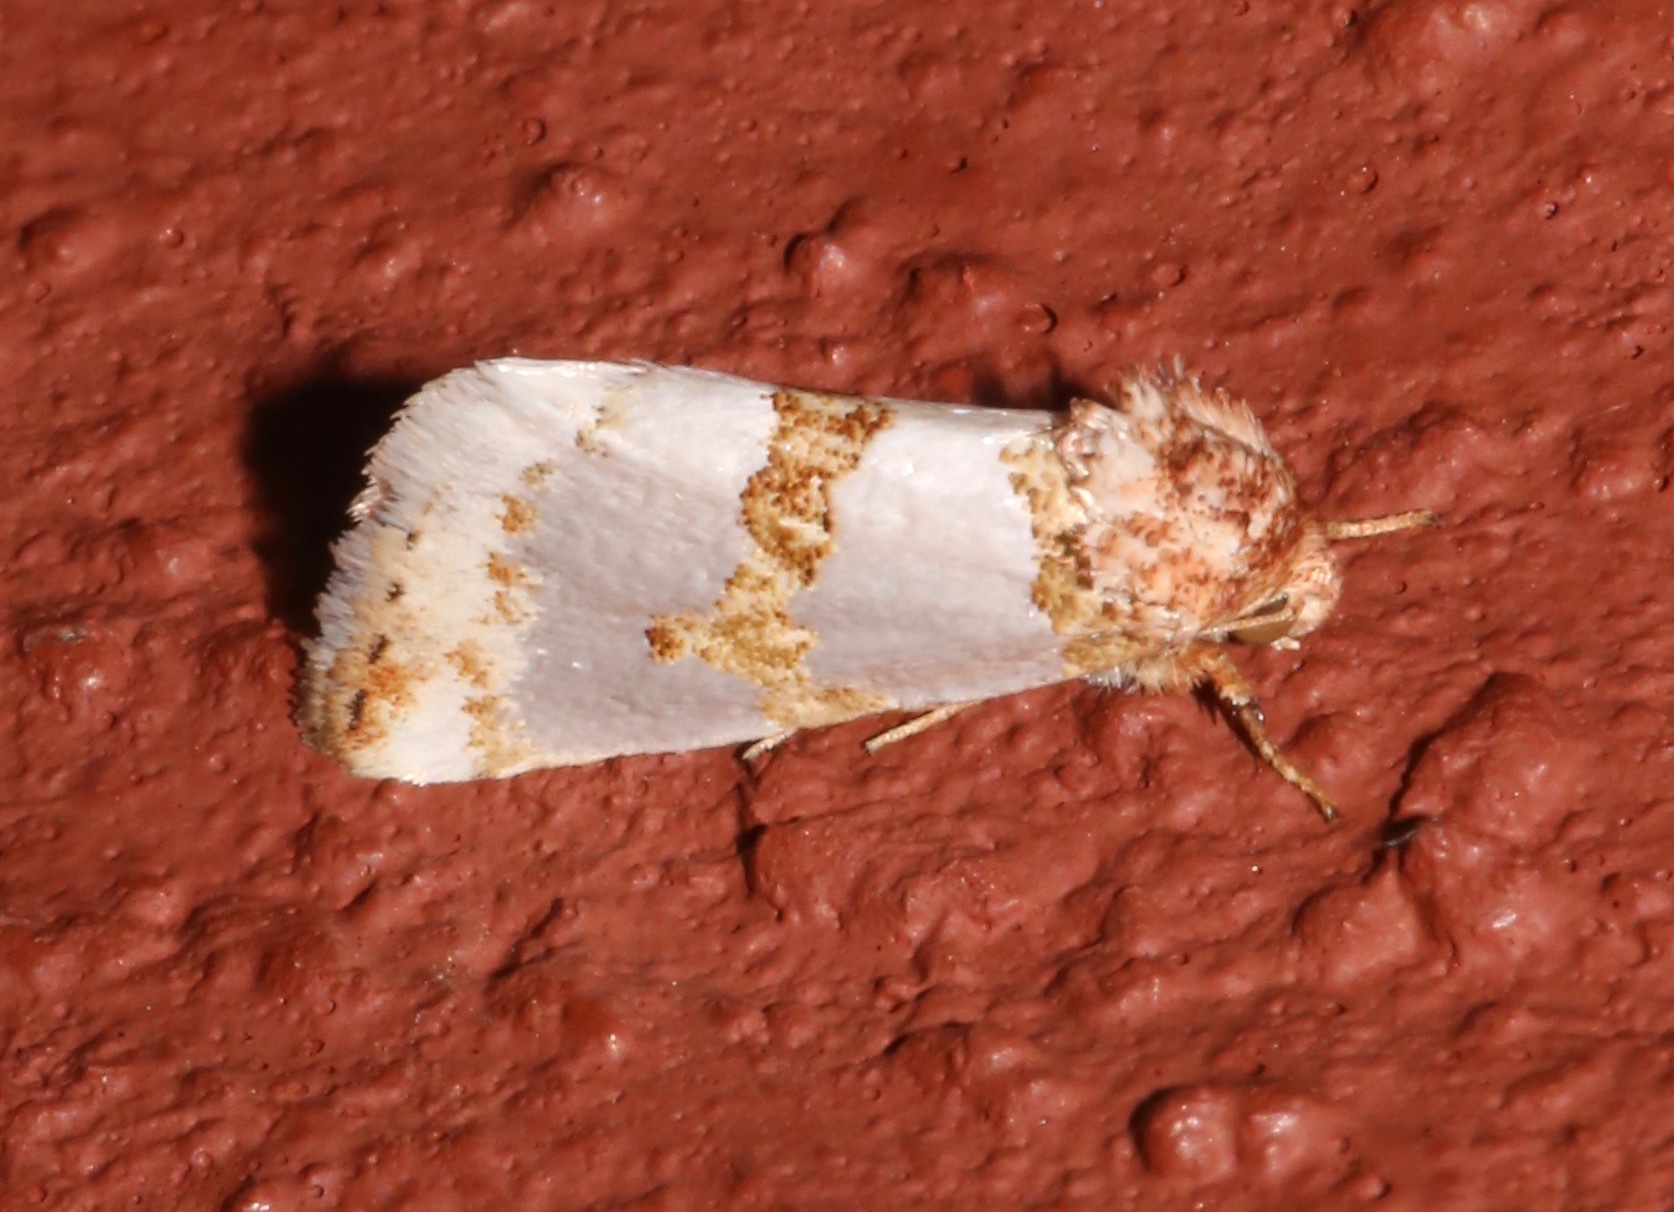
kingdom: Animalia
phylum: Arthropoda
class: Insecta
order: Lepidoptera
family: Noctuidae
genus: Schinia
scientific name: Schinia chrysellus
